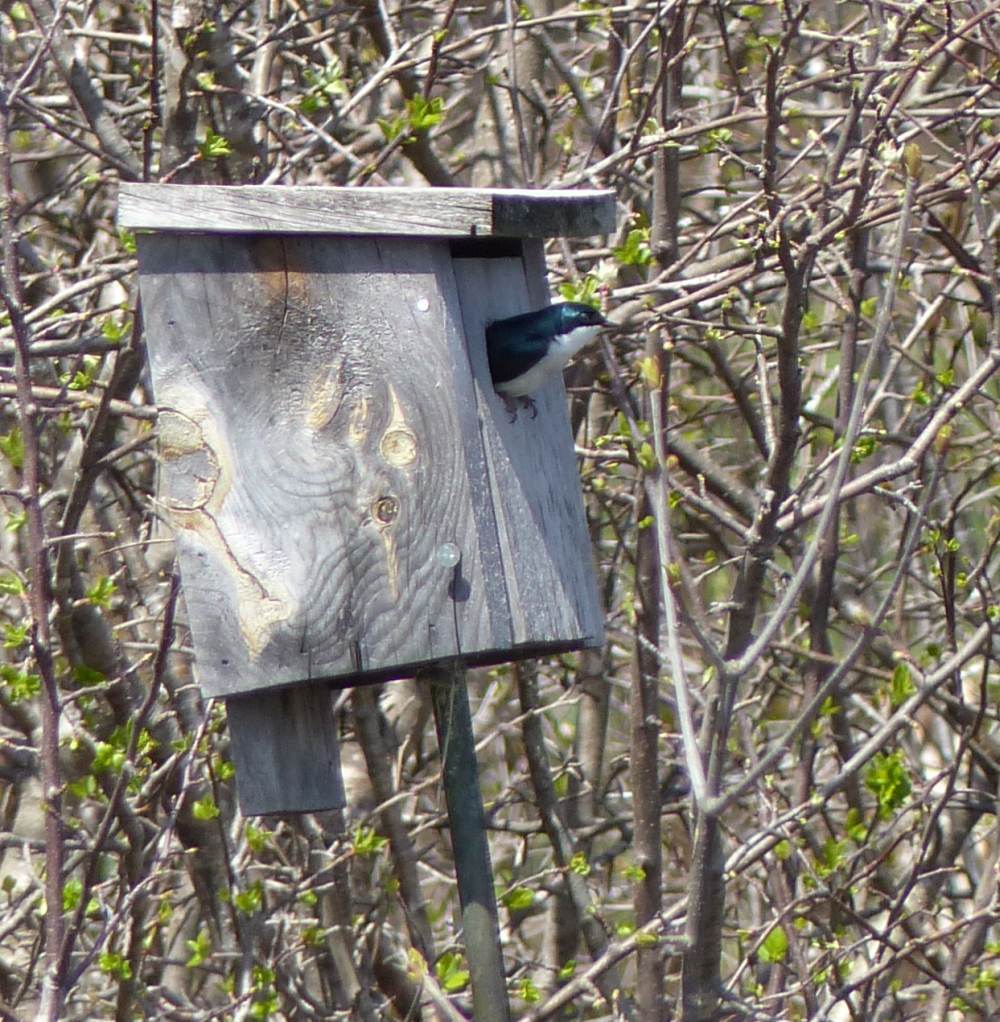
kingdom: Animalia
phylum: Chordata
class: Aves
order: Passeriformes
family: Hirundinidae
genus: Tachycineta
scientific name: Tachycineta bicolor
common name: Tree swallow
